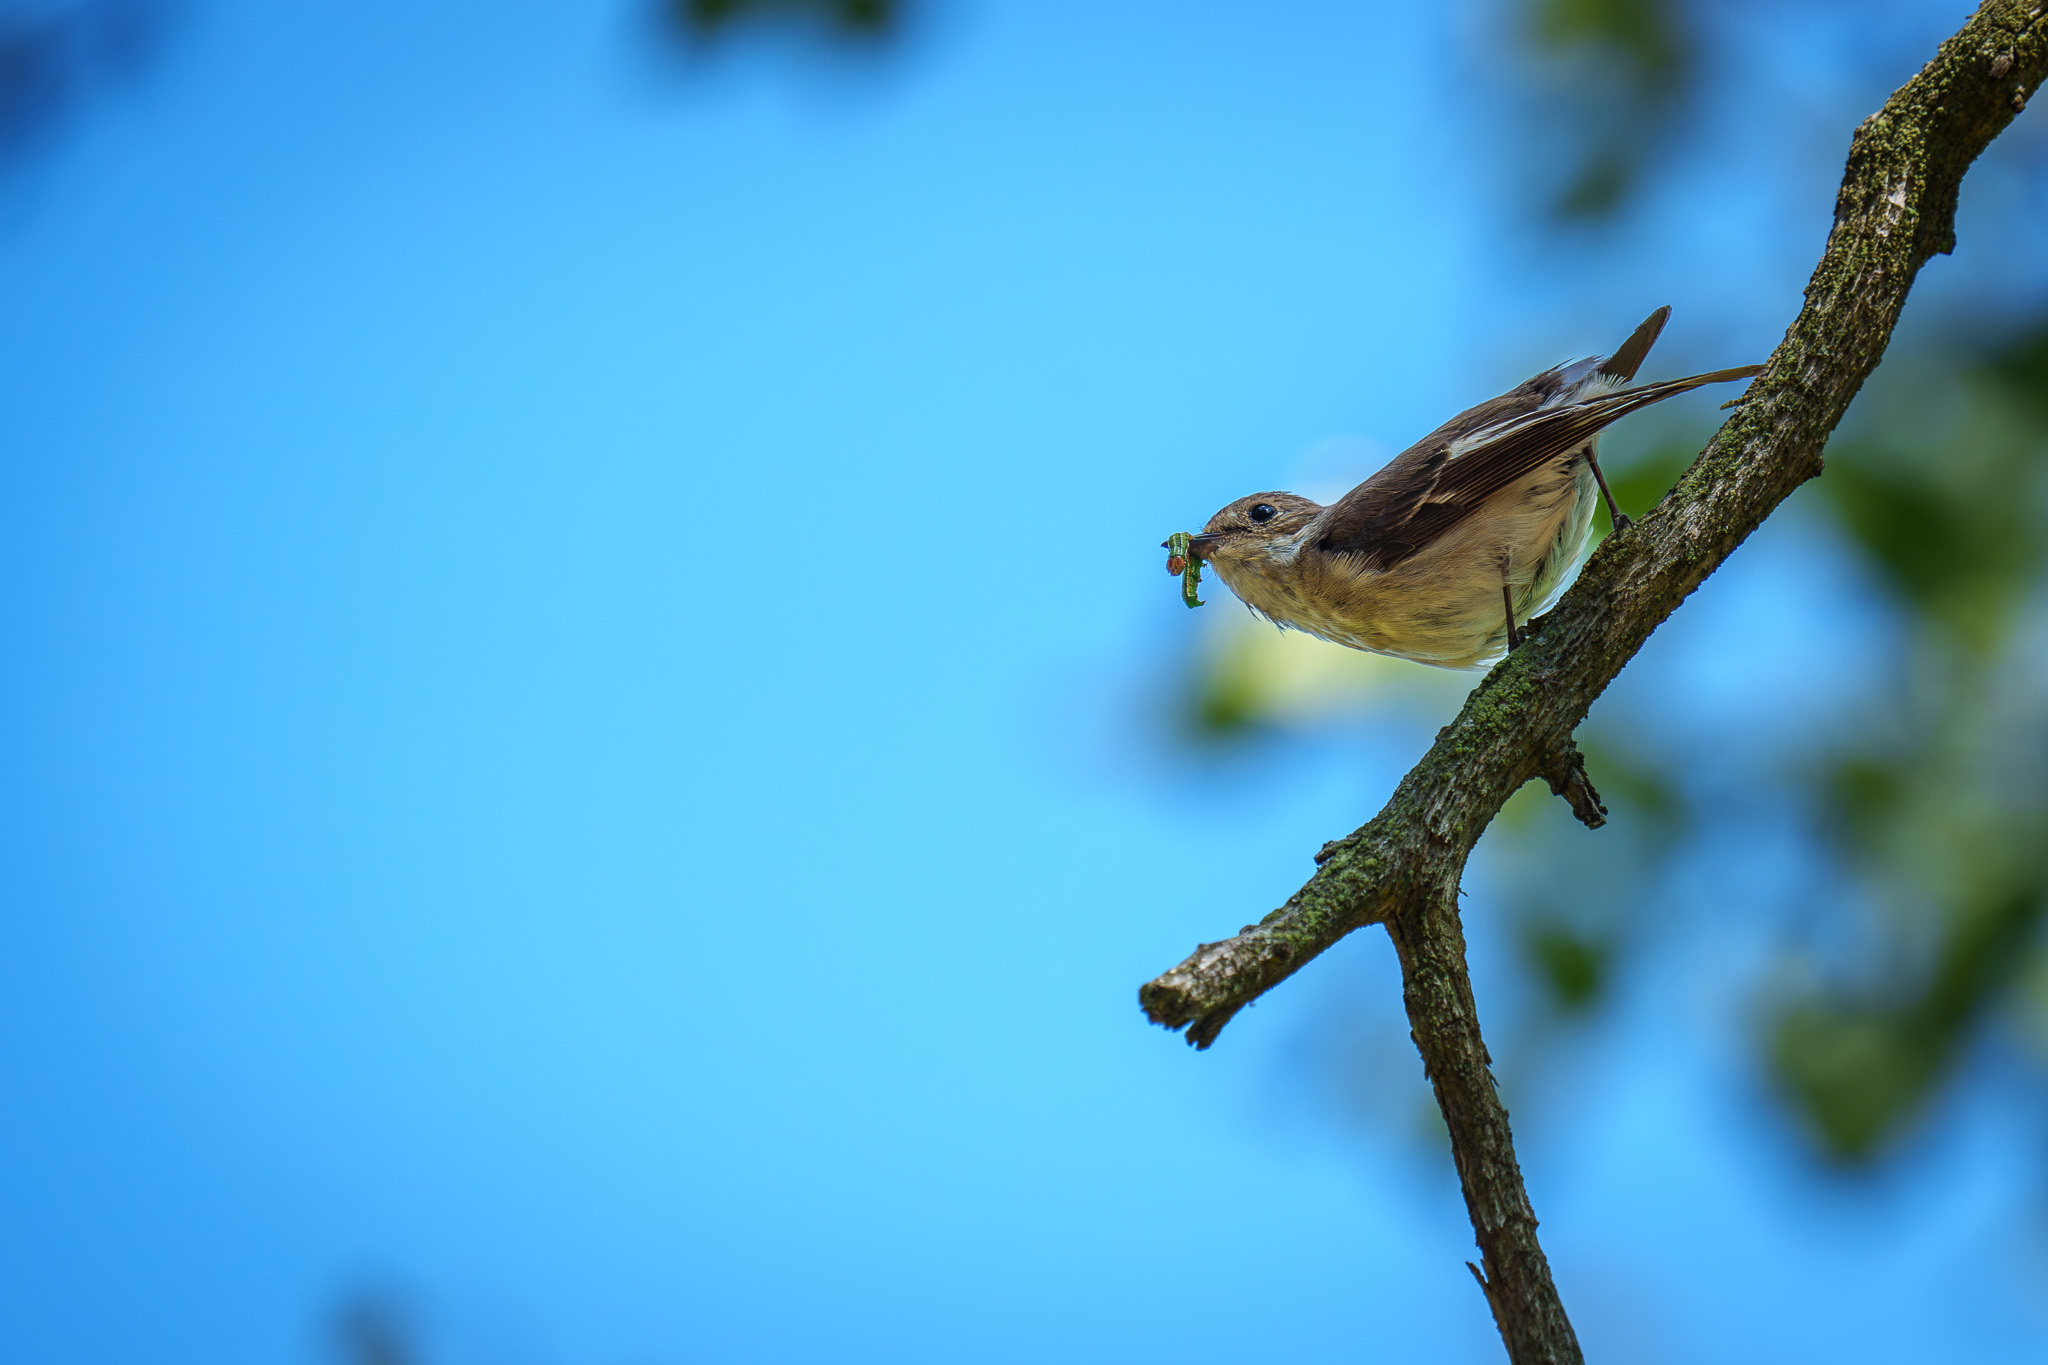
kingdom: Animalia
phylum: Chordata
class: Aves
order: Passeriformes
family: Muscicapidae
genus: Ficedula
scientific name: Ficedula hypoleuca
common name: European pied flycatcher
